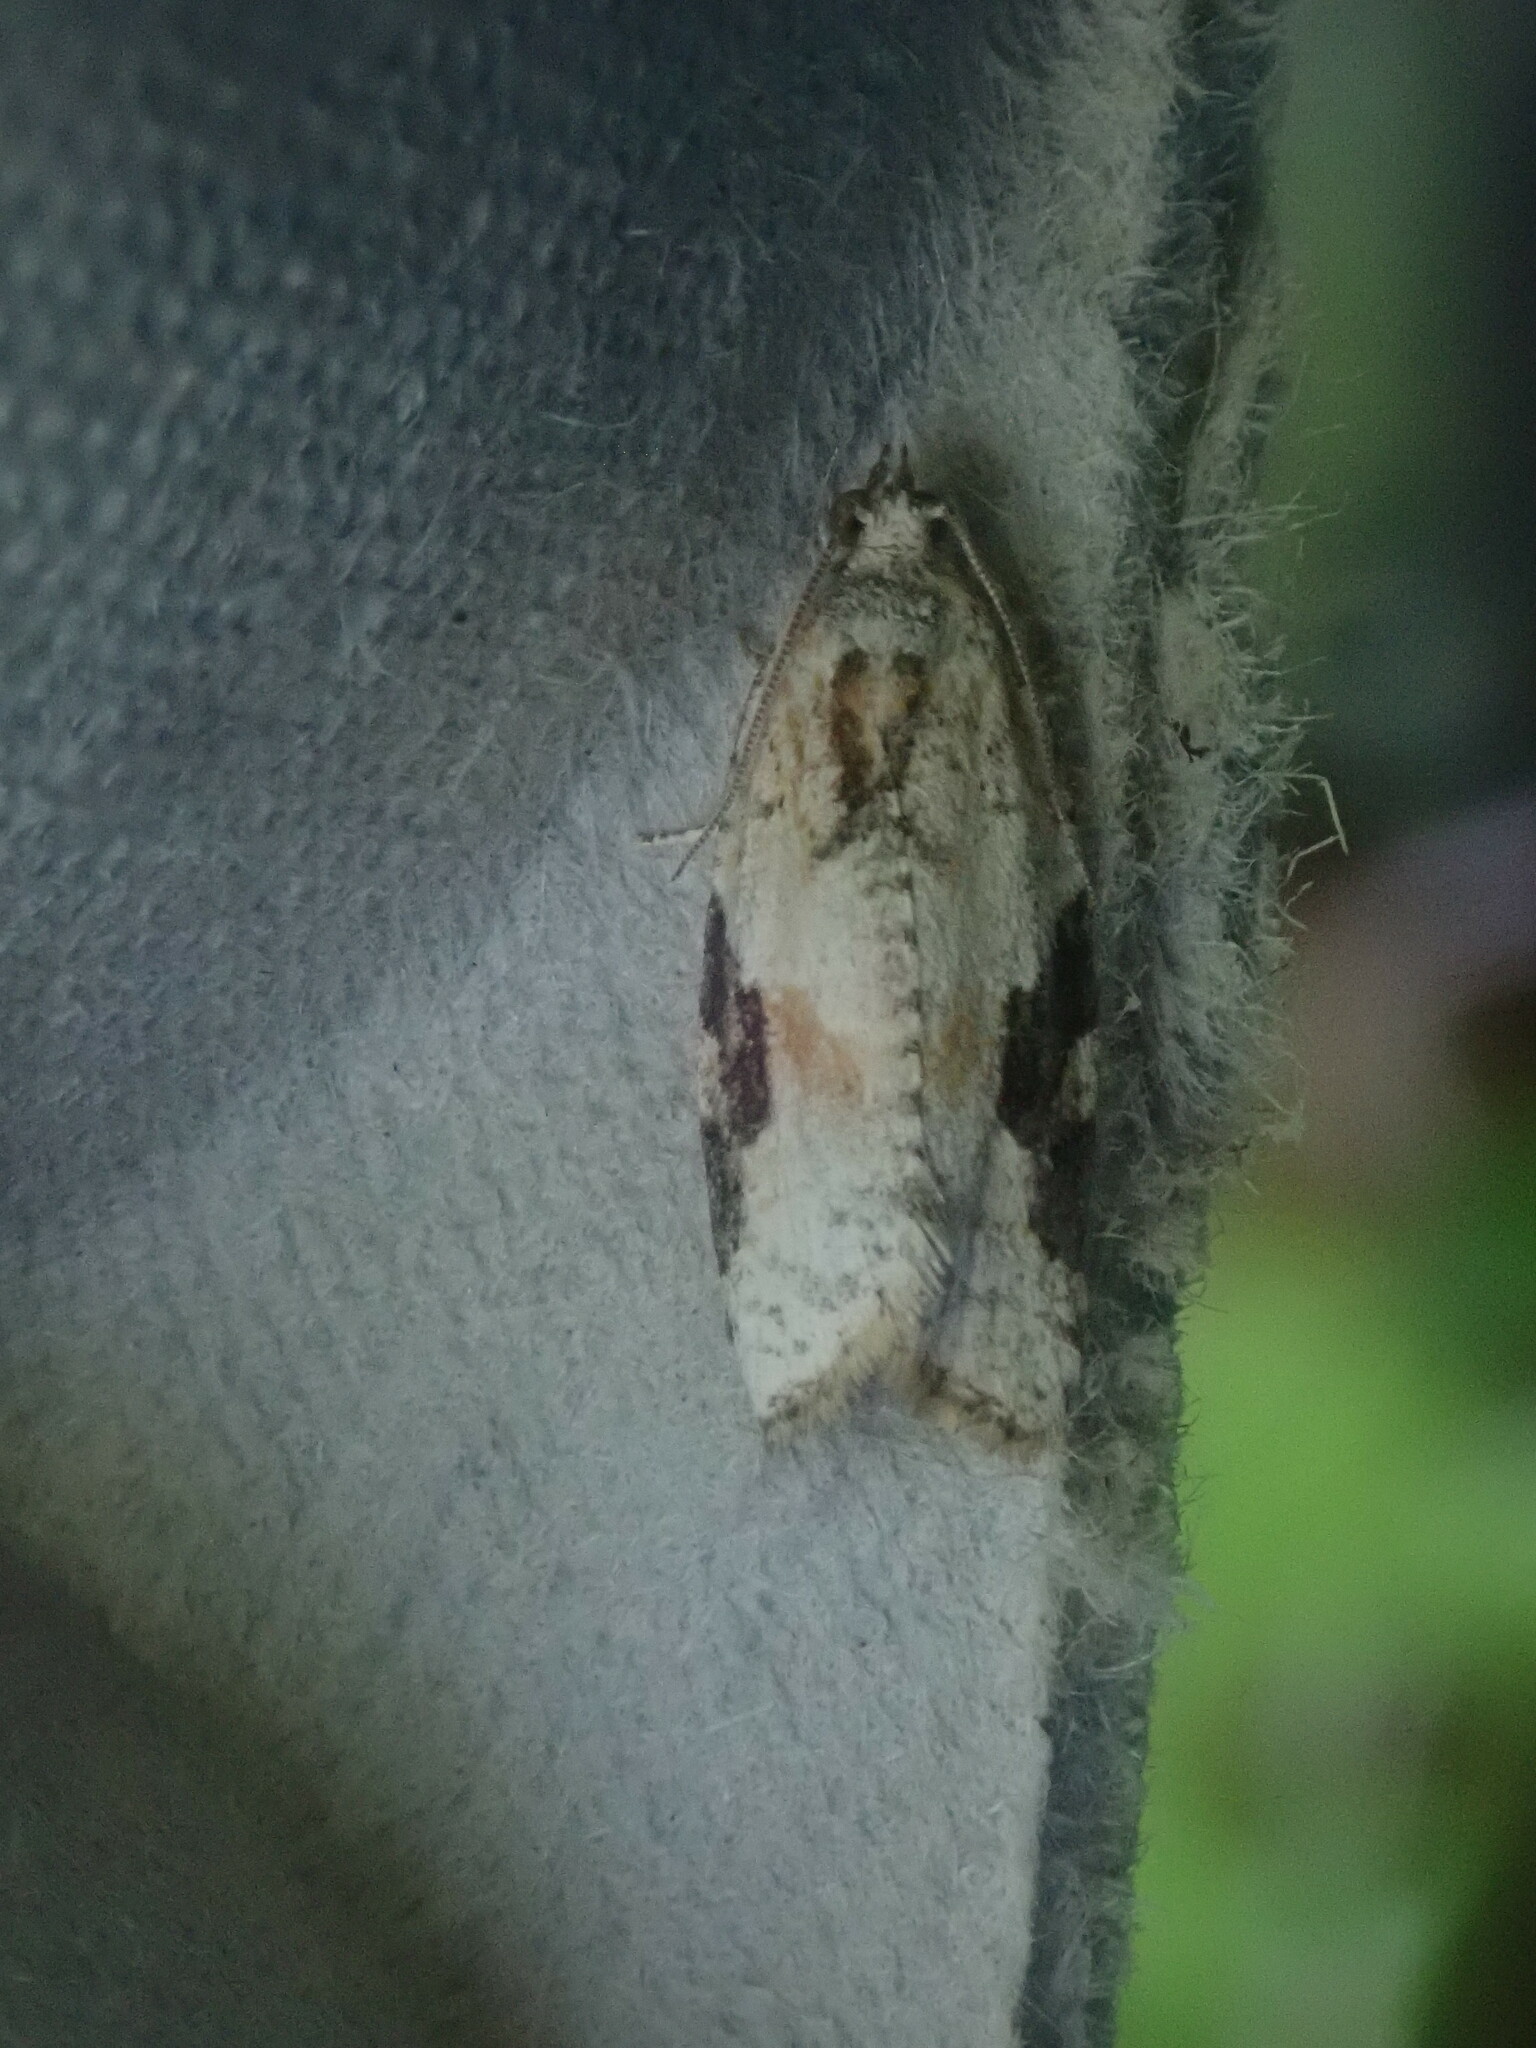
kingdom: Animalia
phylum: Arthropoda
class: Insecta
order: Lepidoptera
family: Tortricidae
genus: Argyrotaenia
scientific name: Argyrotaenia mariana
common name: Gray-banded leafroller moth
